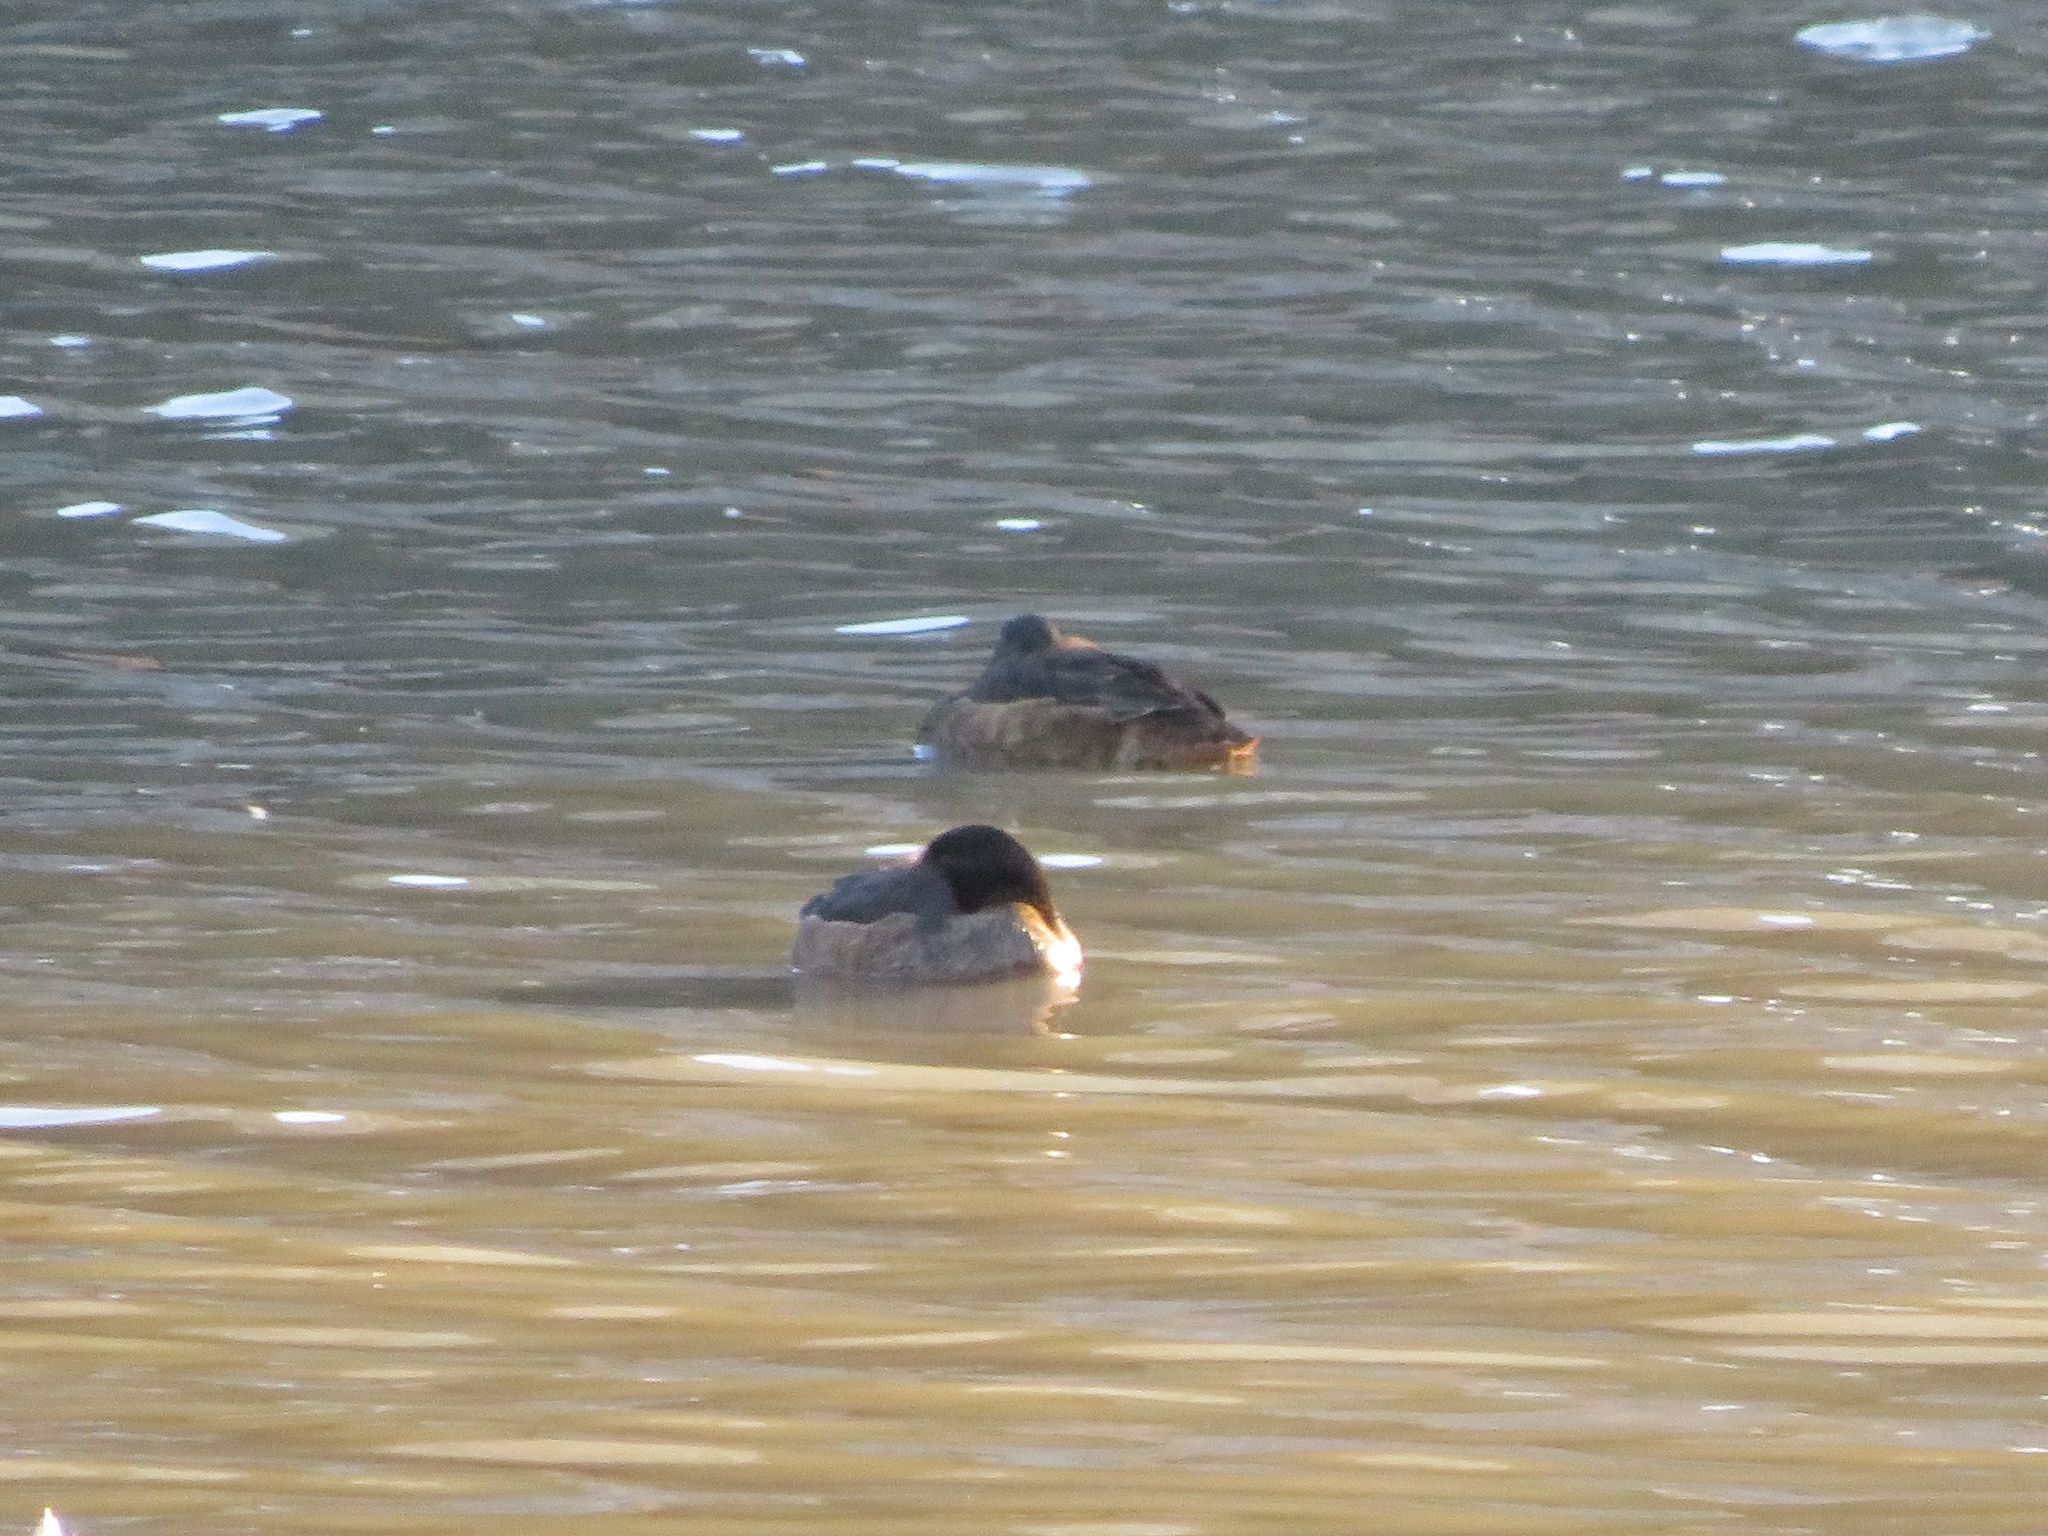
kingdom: Animalia
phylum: Chordata
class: Aves
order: Anseriformes
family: Anatidae
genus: Heteronetta
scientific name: Heteronetta atricapilla
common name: Black-headed duck
